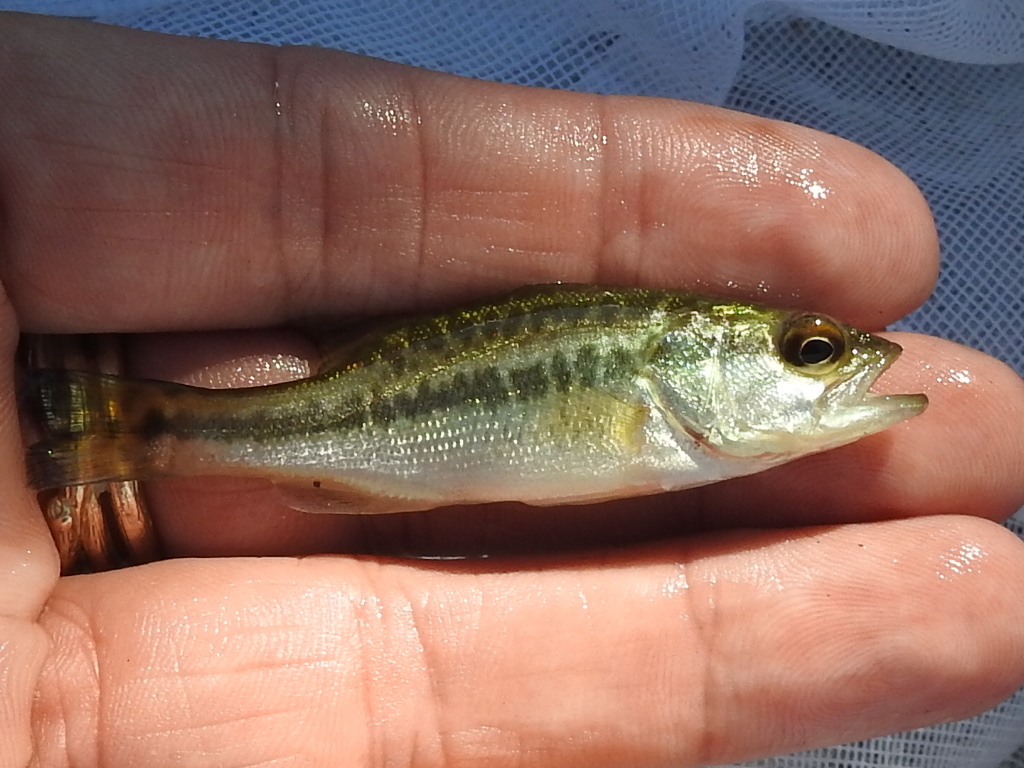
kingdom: Animalia
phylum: Chordata
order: Perciformes
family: Centrarchidae
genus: Micropterus
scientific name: Micropterus
